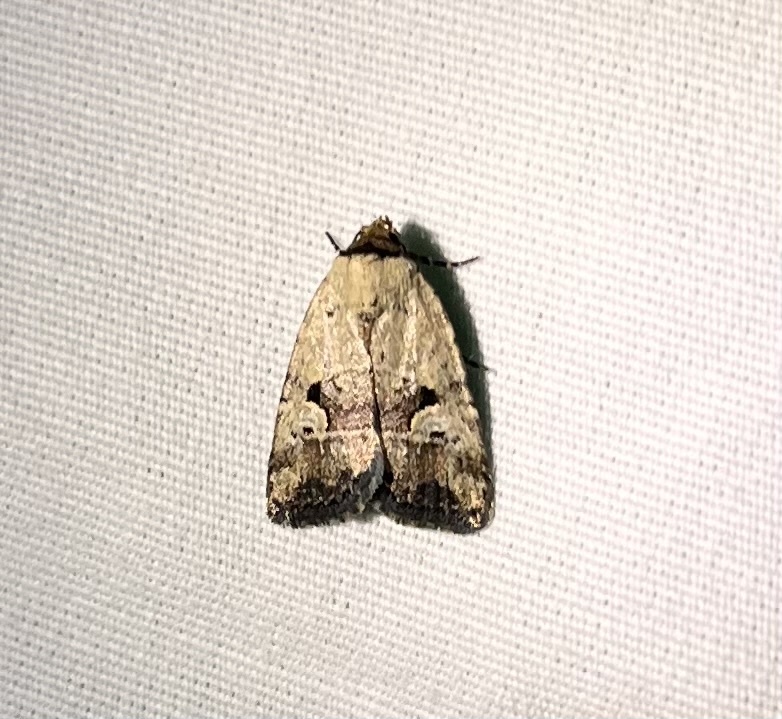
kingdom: Animalia
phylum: Arthropoda
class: Insecta
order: Lepidoptera
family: Noctuidae
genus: Elaphria
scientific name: Elaphria festivoides
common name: Festive midget
